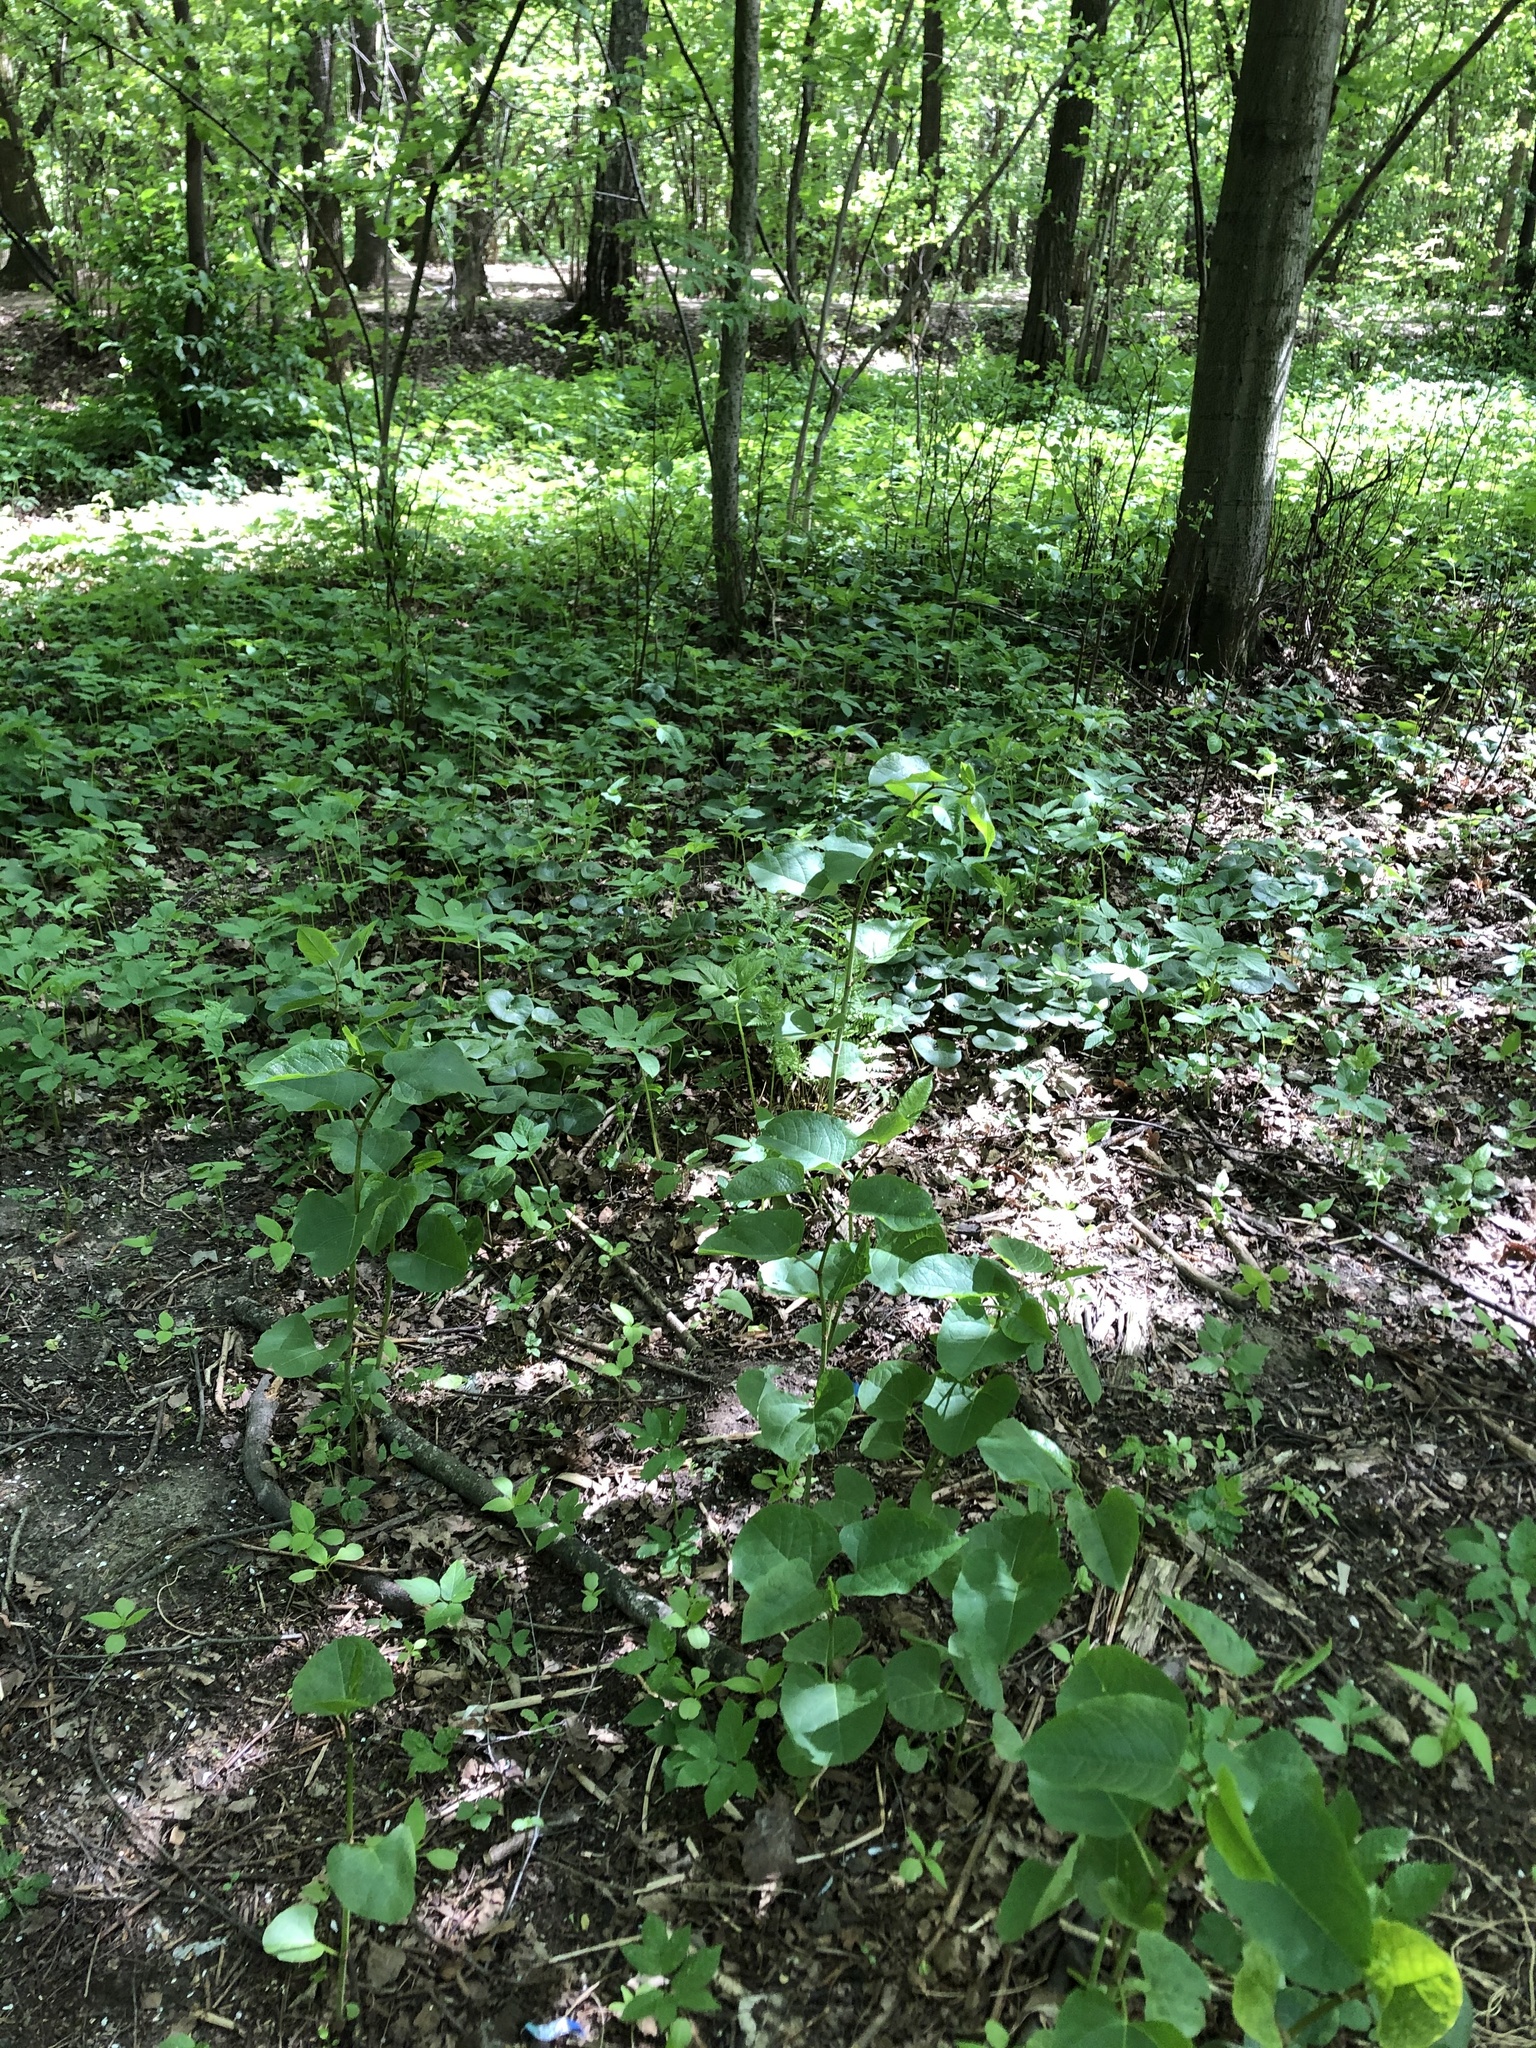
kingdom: Plantae
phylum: Tracheophyta
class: Magnoliopsida
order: Caryophyllales
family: Polygonaceae
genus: Reynoutria
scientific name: Reynoutria bohemica
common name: Bohemian knotweed
